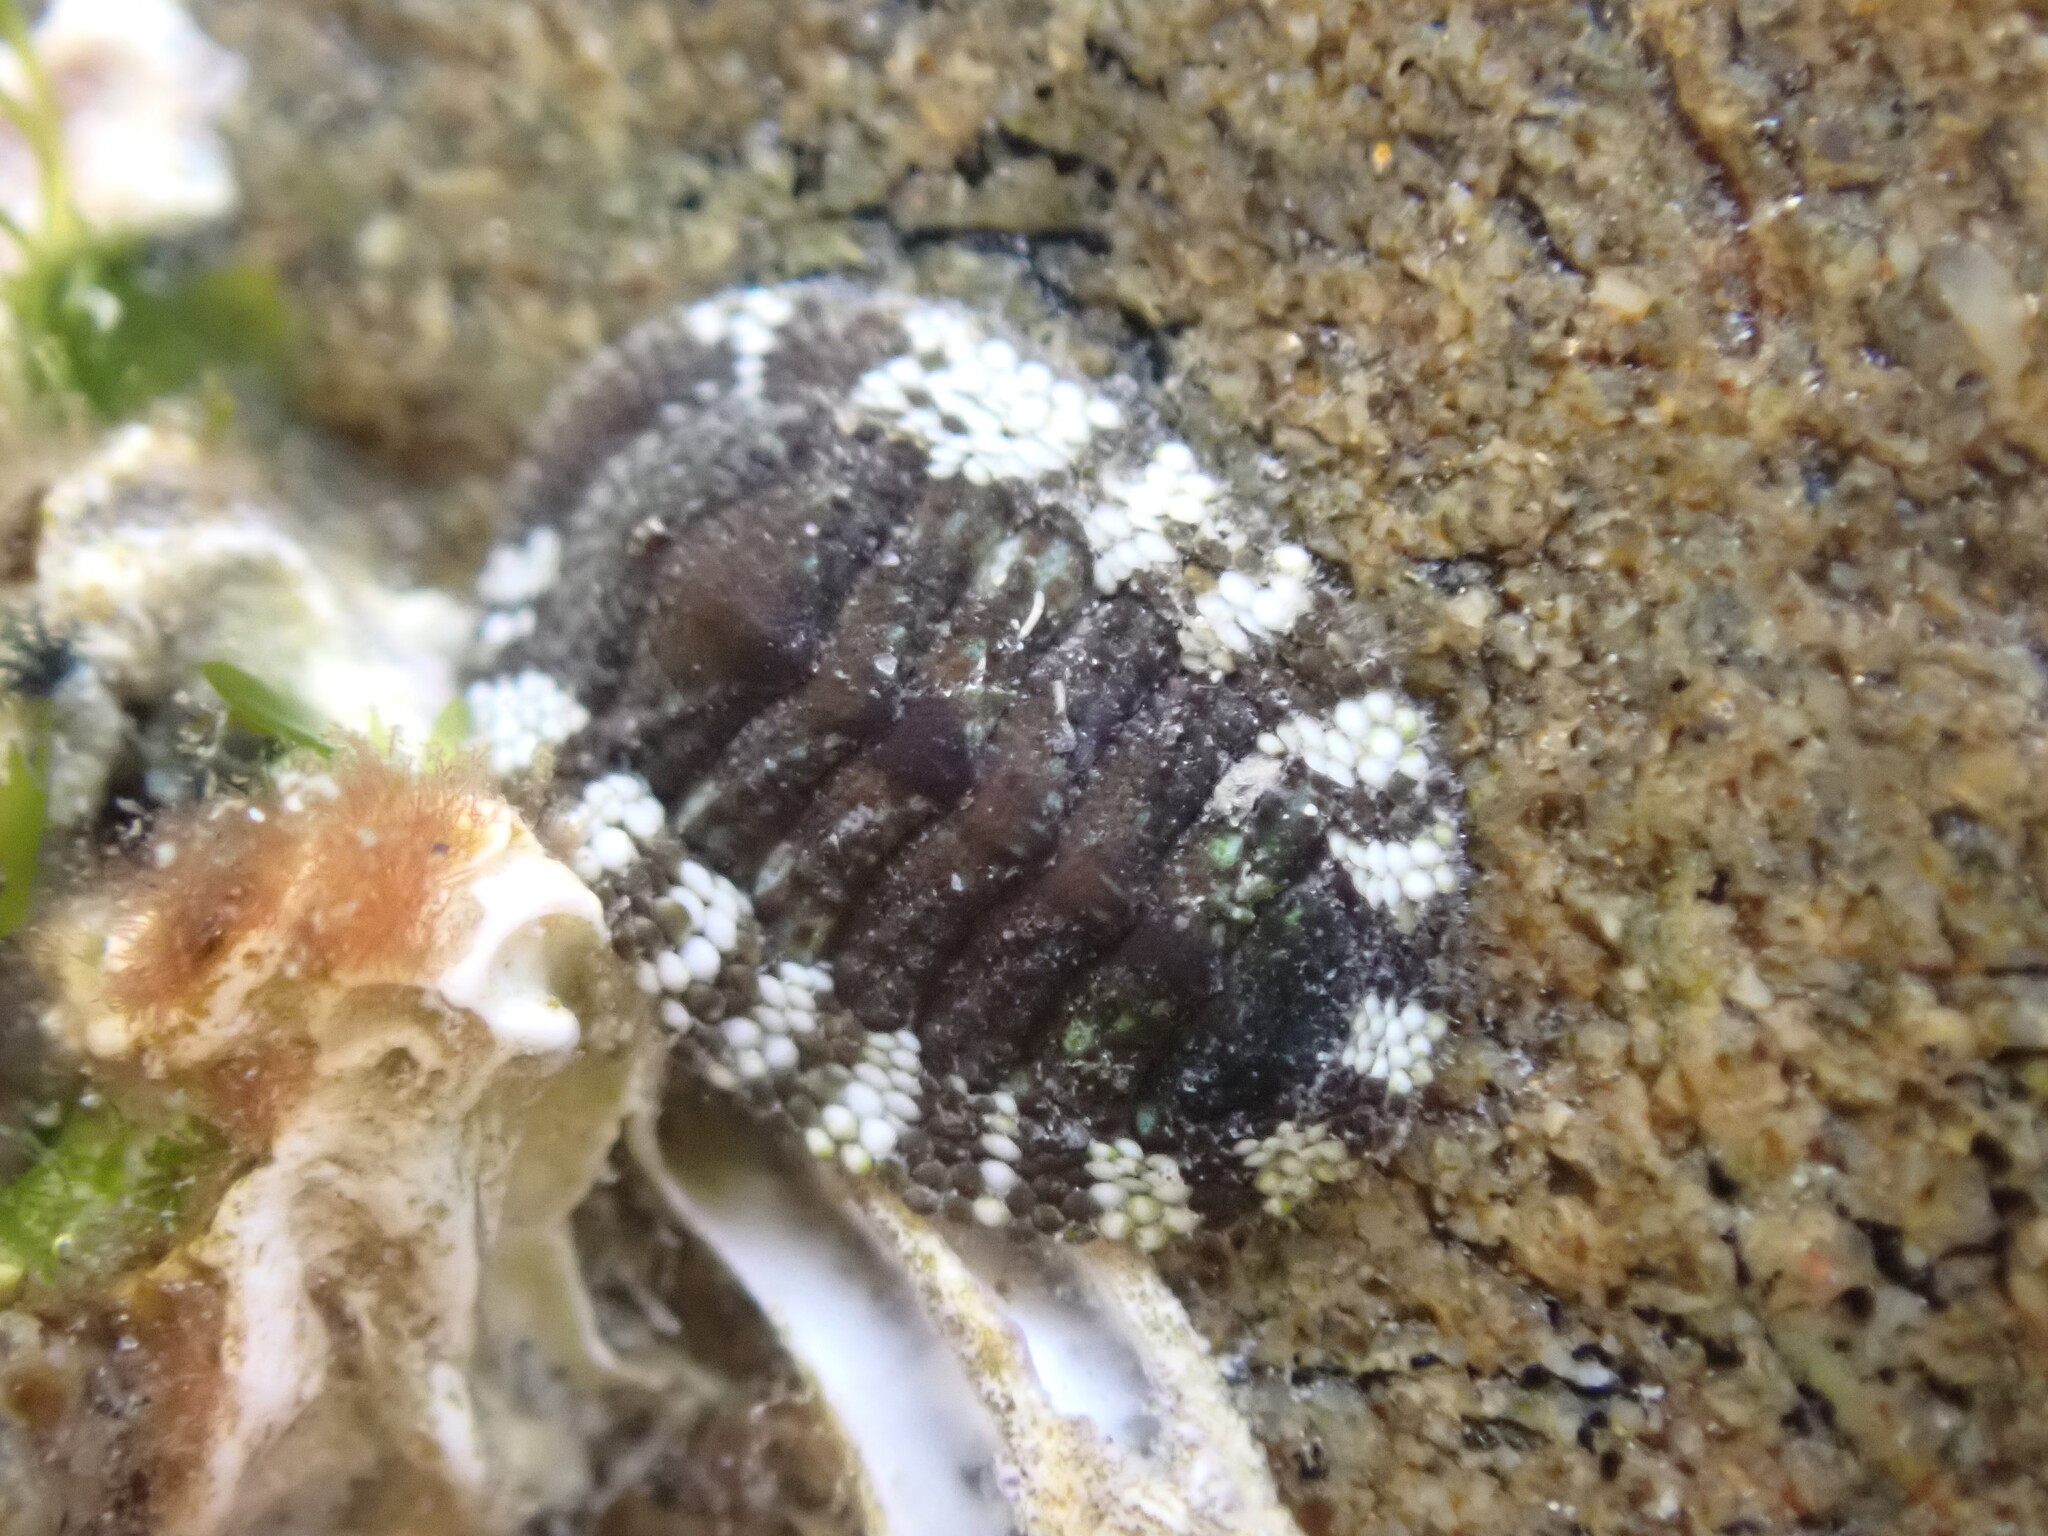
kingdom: Animalia
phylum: Mollusca
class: Polyplacophora
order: Chitonida
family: Chitonidae
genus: Sypharochiton
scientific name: Sypharochiton pelliserpentis
